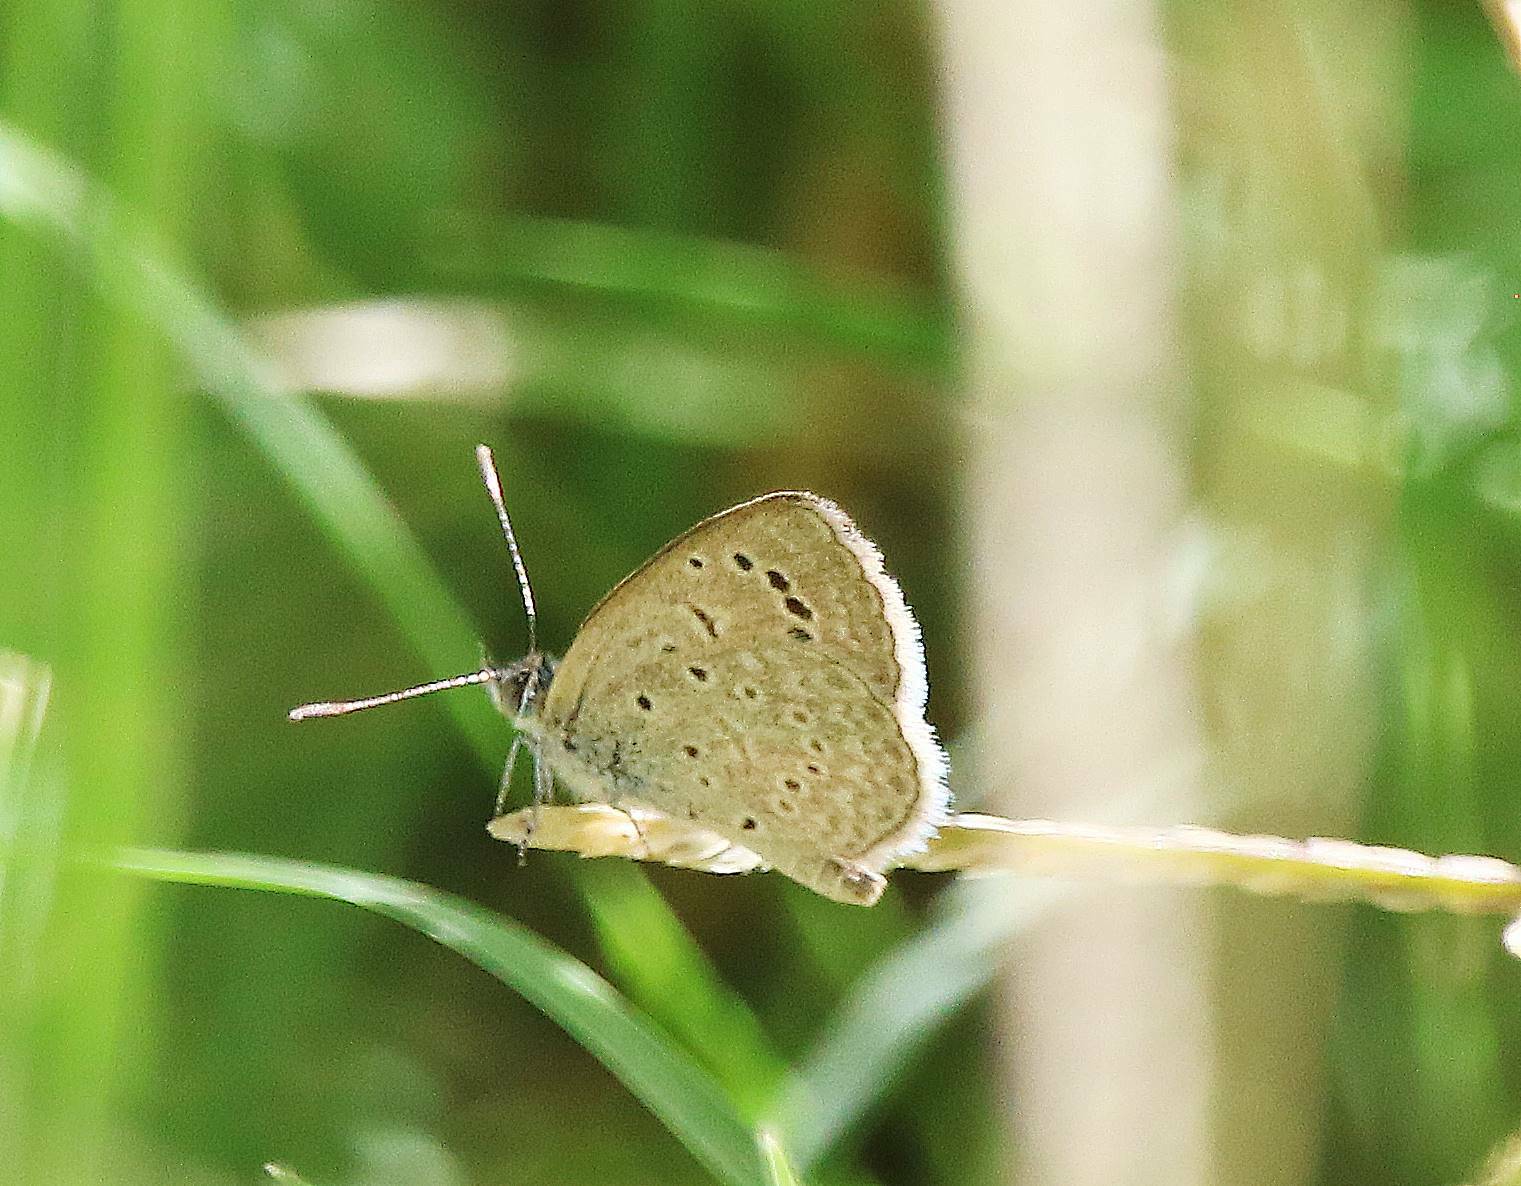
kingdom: Animalia
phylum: Arthropoda
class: Insecta
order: Lepidoptera
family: Lycaenidae
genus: Zizeeria
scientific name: Zizeeria knysna
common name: African grass blue
